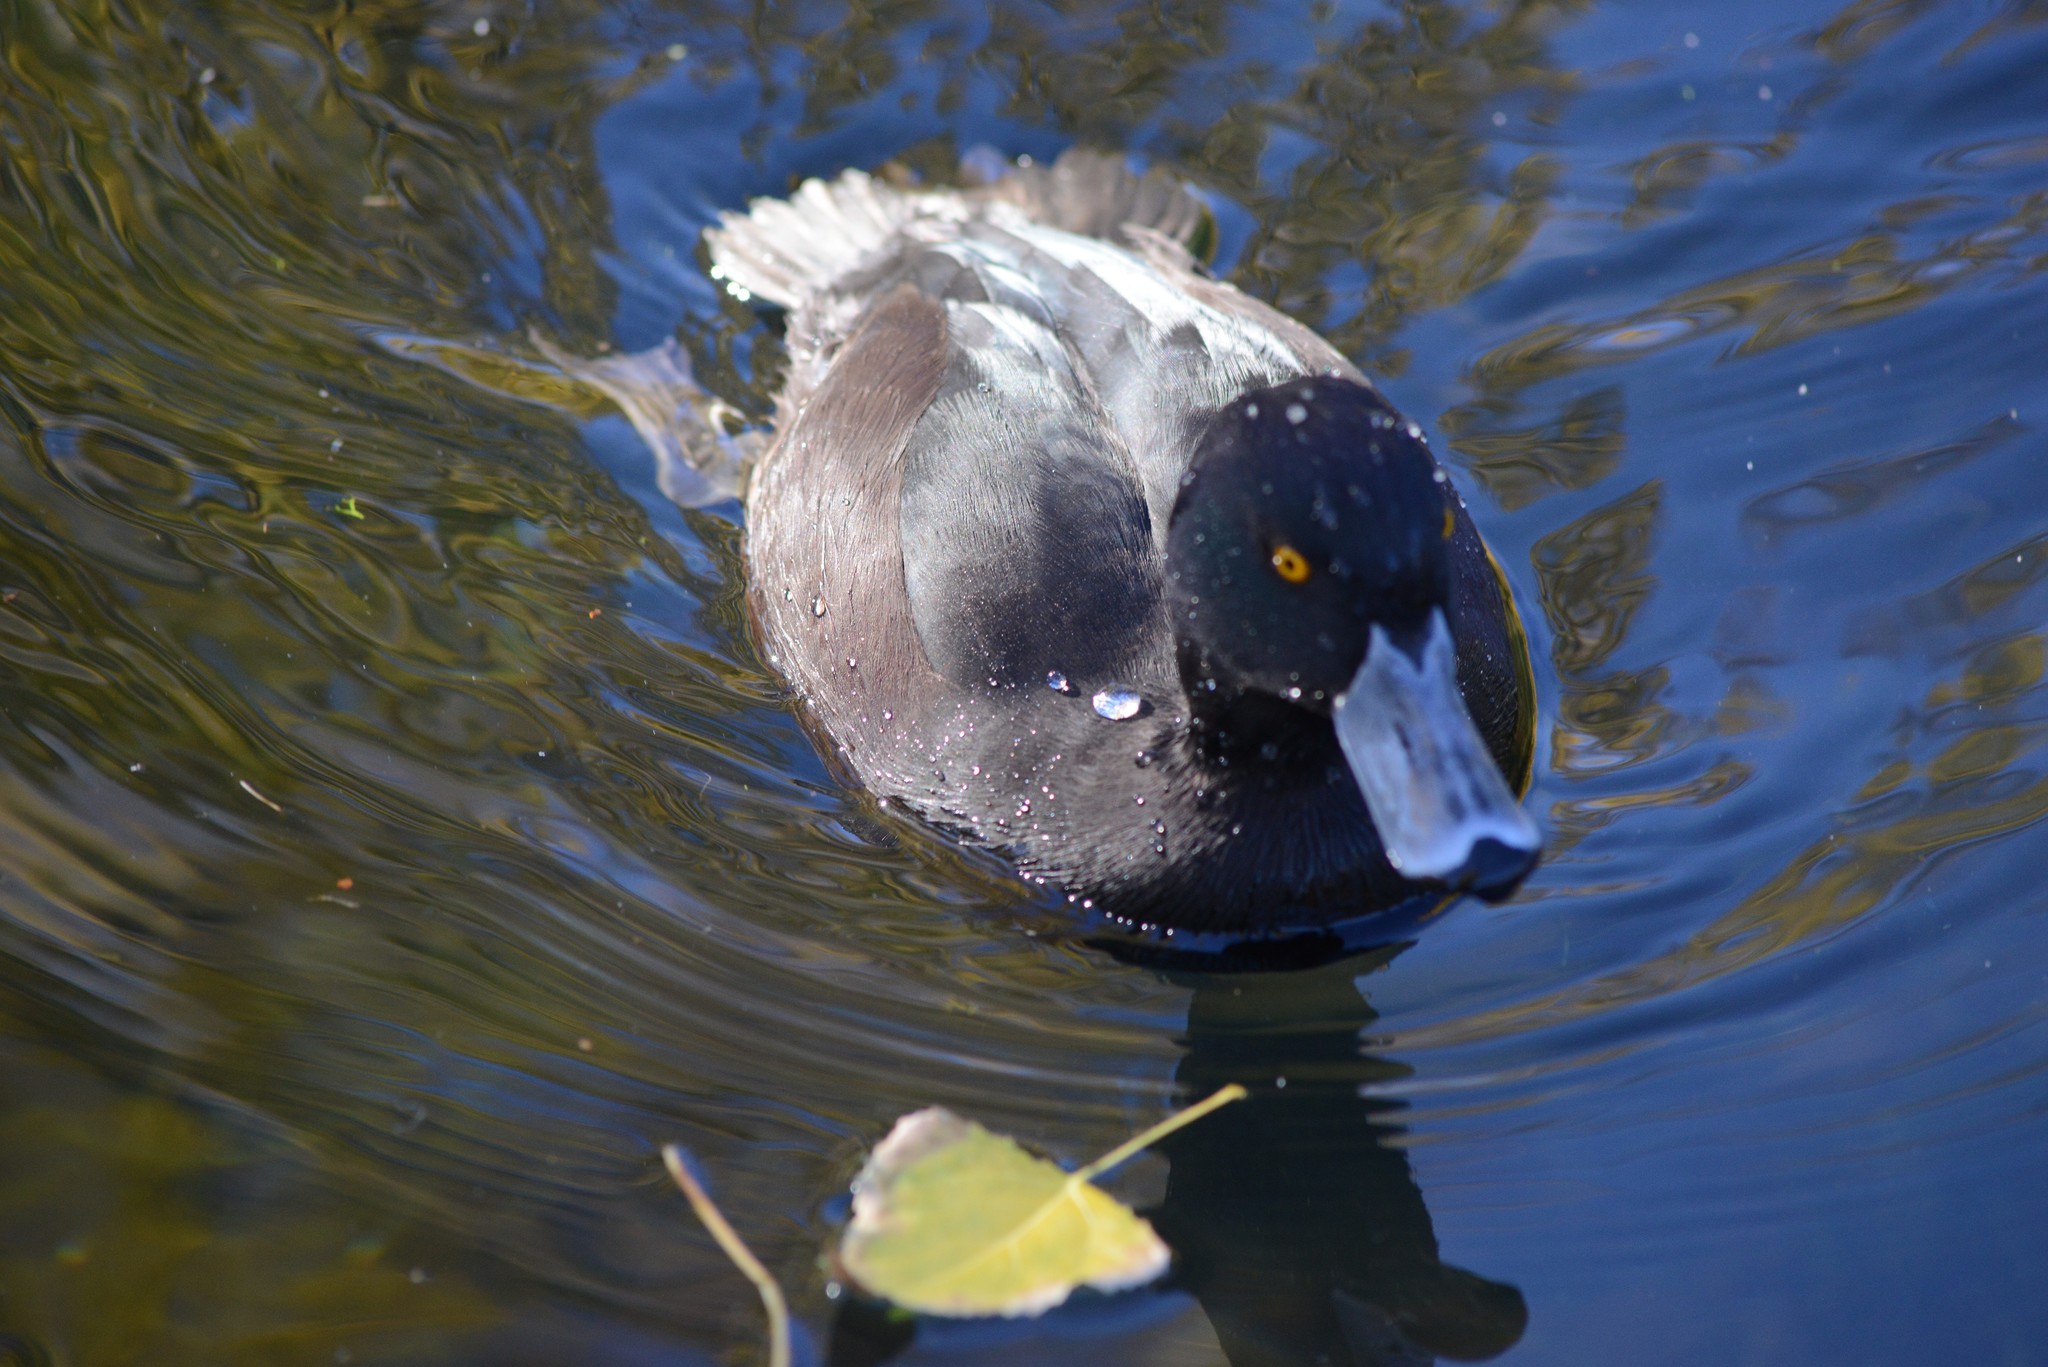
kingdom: Animalia
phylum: Chordata
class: Aves
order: Anseriformes
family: Anatidae
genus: Aythya
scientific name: Aythya novaeseelandiae
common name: New zealand scaup
